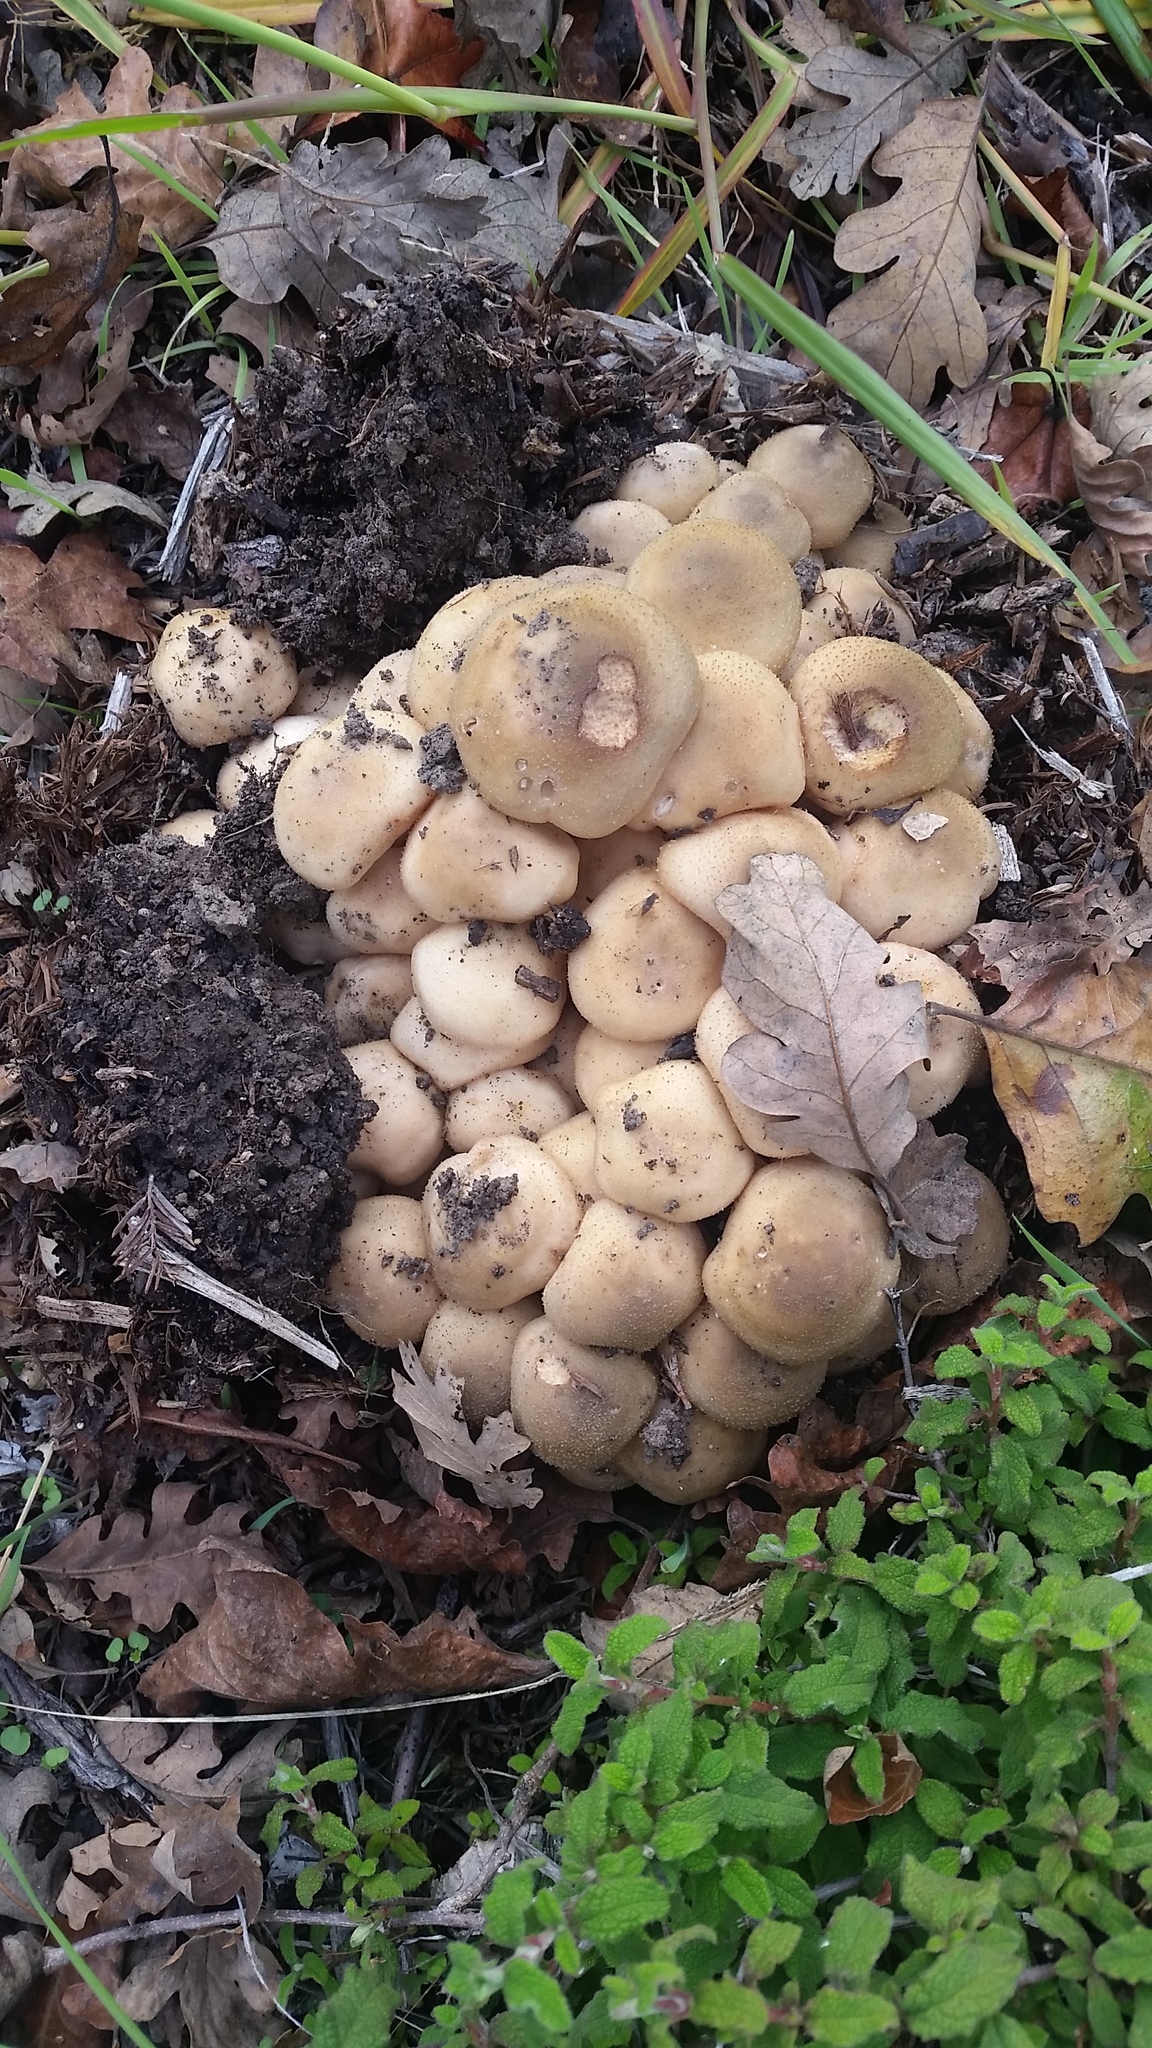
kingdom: Fungi
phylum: Basidiomycota
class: Agaricomycetes
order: Agaricales
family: Physalacriaceae
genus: Armillaria
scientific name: Armillaria mellea
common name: Honey fungus
